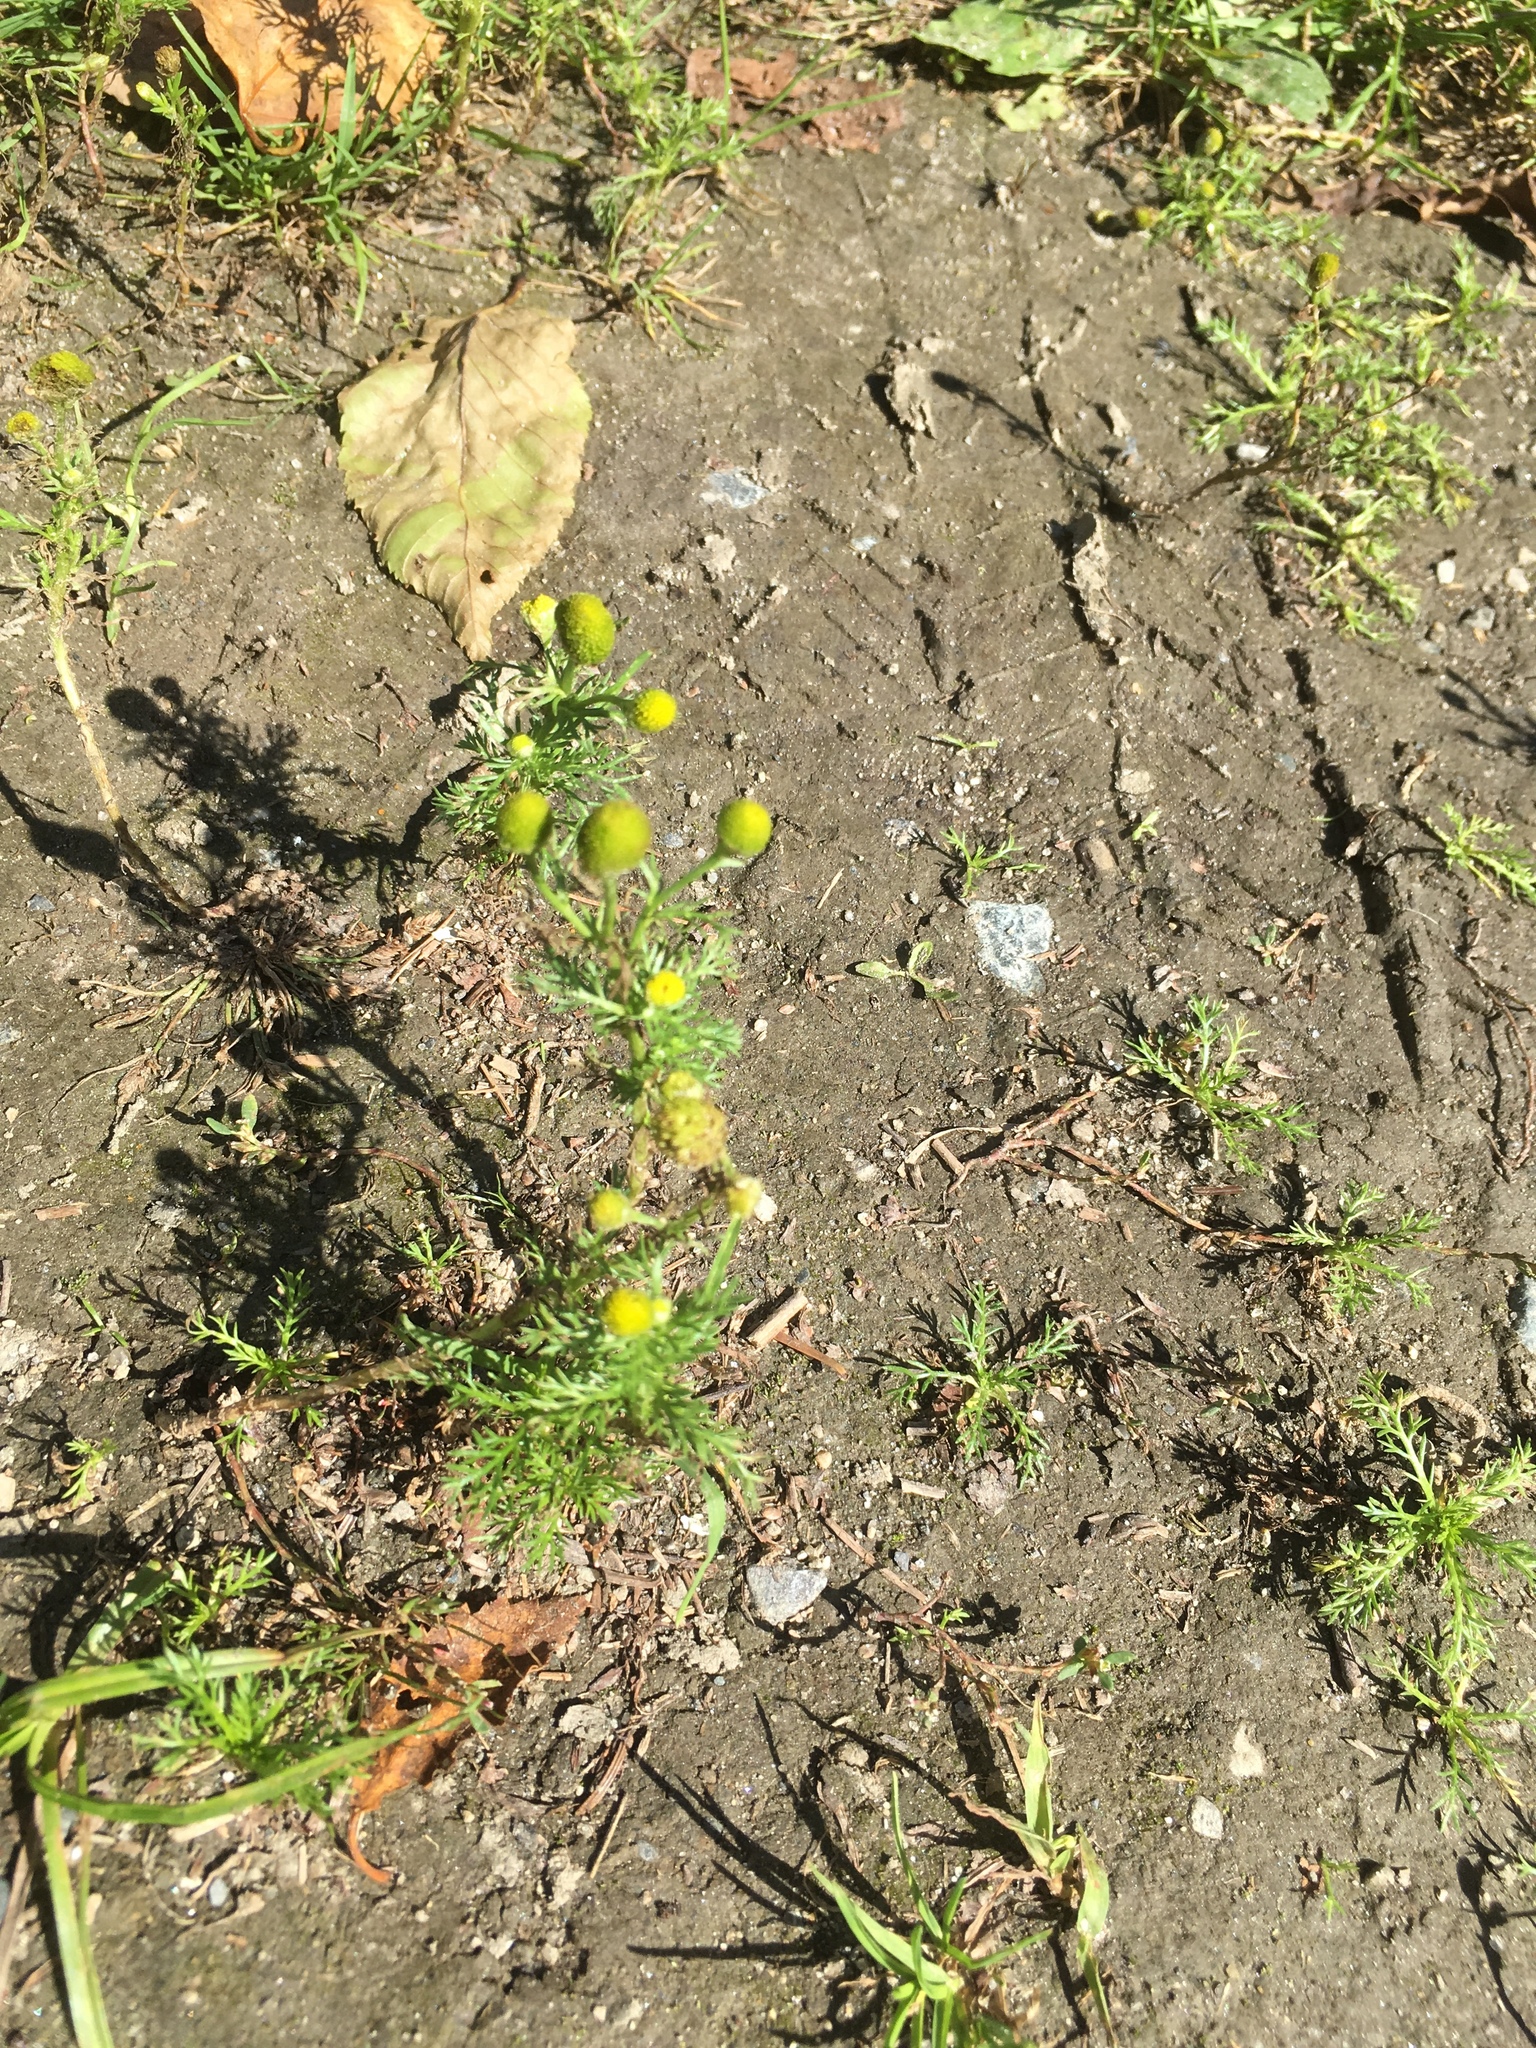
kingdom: Plantae
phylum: Tracheophyta
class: Magnoliopsida
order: Asterales
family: Asteraceae
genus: Matricaria
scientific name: Matricaria discoidea
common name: Disc mayweed
